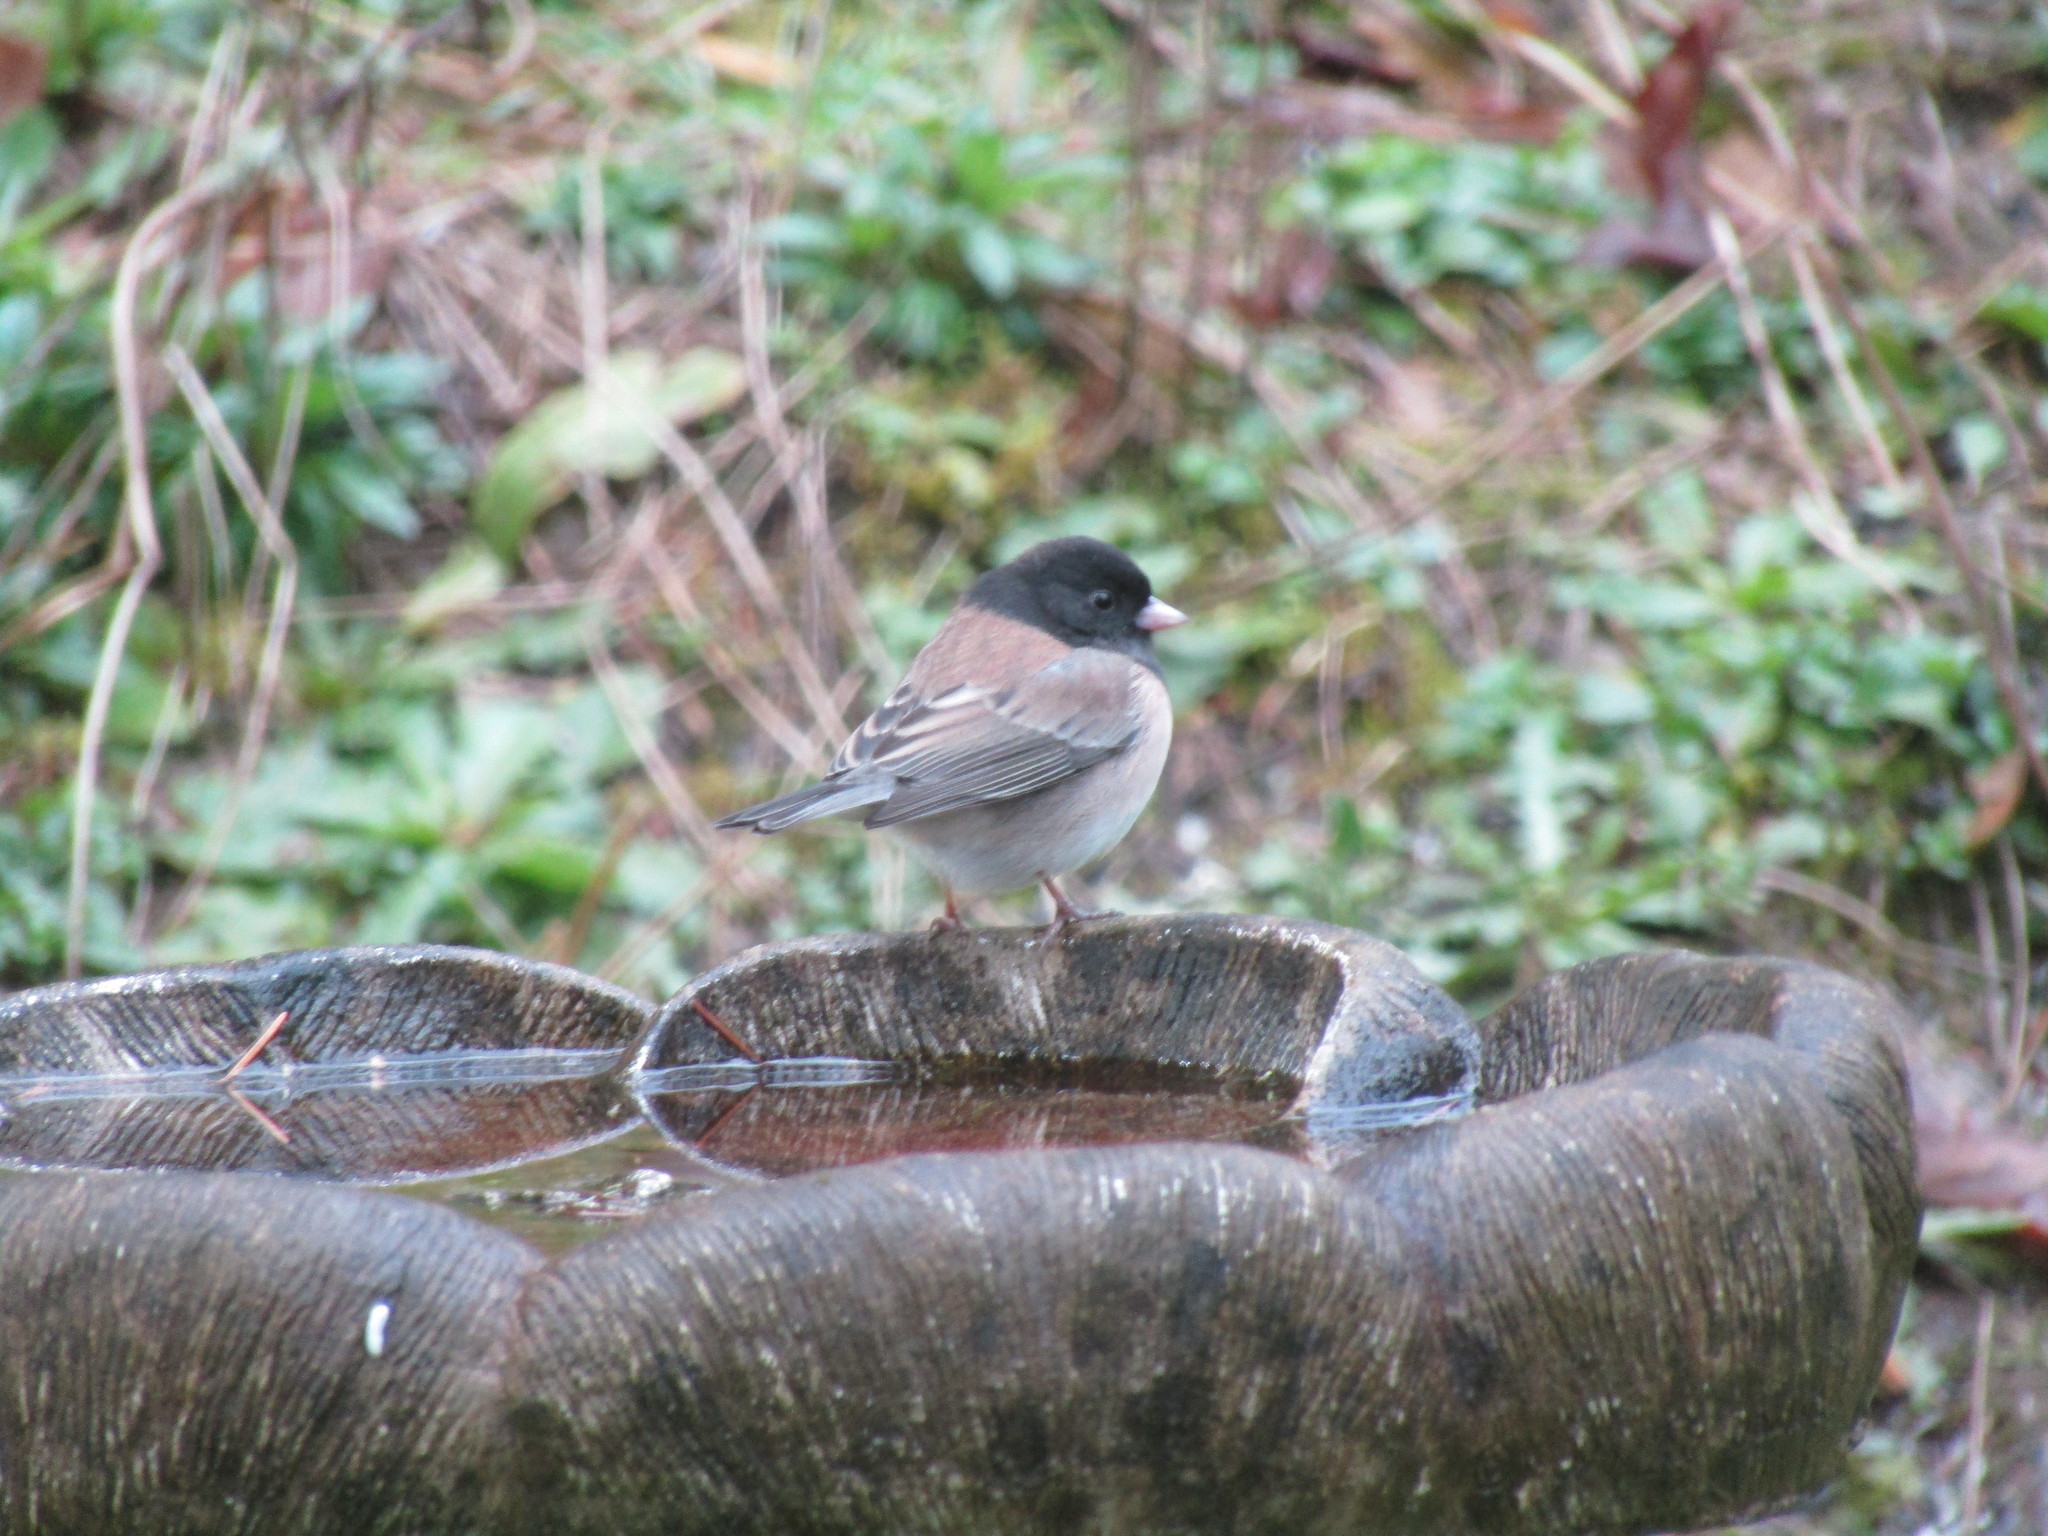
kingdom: Animalia
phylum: Chordata
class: Aves
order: Passeriformes
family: Passerellidae
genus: Junco
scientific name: Junco hyemalis
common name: Dark-eyed junco
